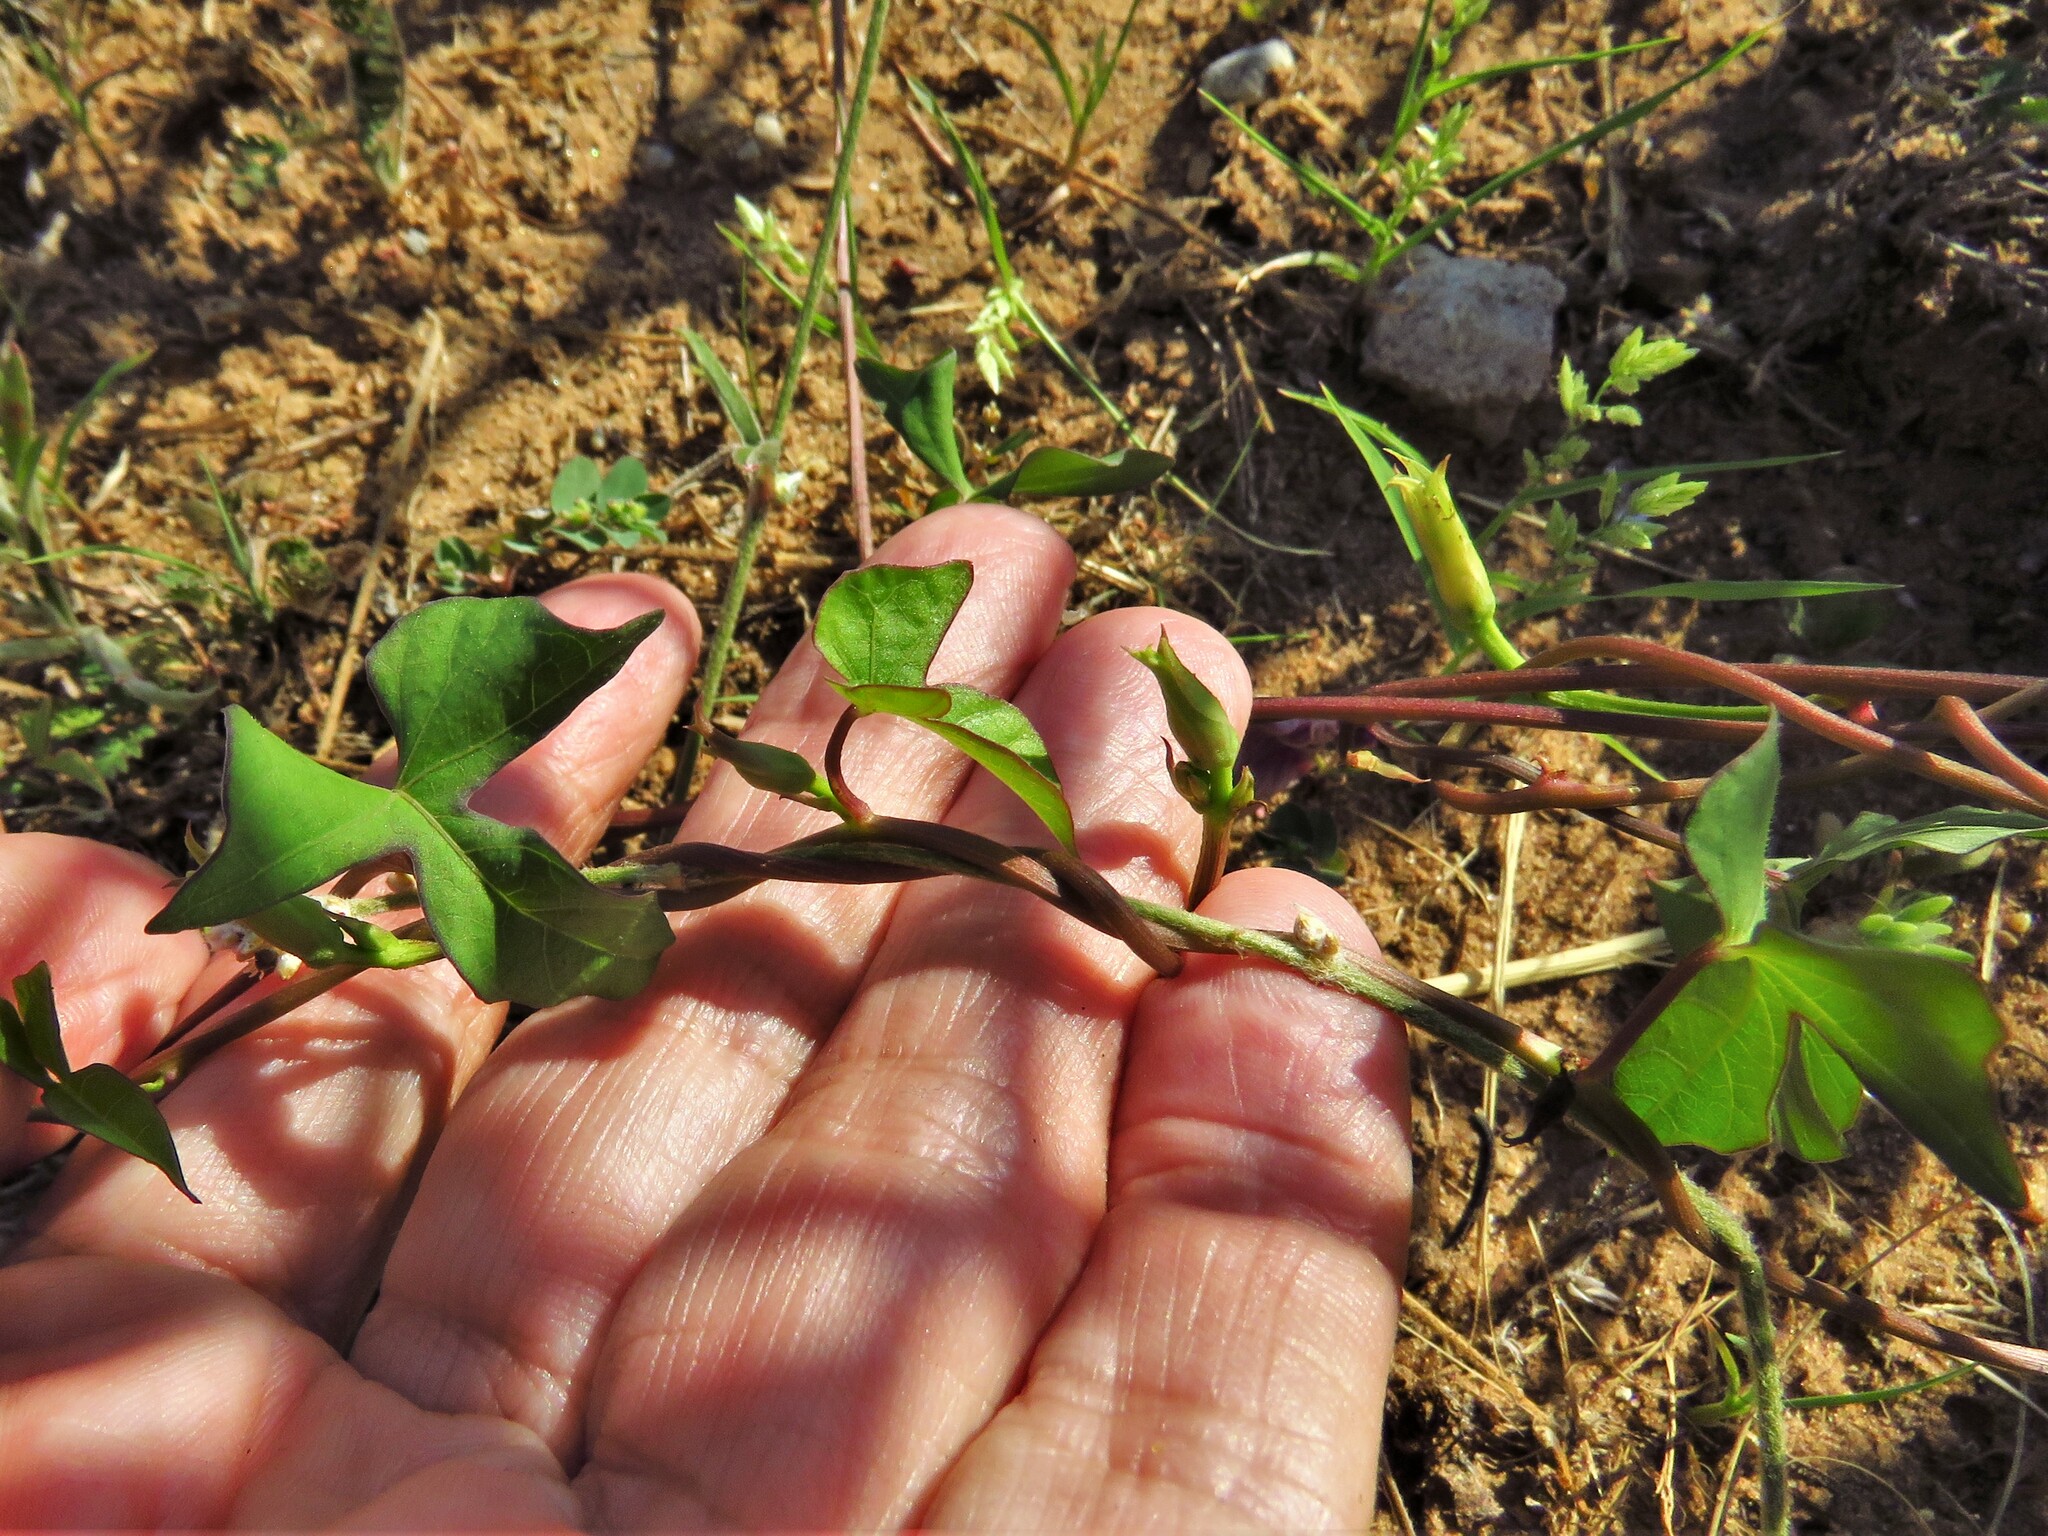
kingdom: Plantae
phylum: Tracheophyta
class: Magnoliopsida
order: Solanales
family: Convolvulaceae
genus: Ipomoea
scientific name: Ipomoea cordatotriloba
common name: Cotton morning glory
